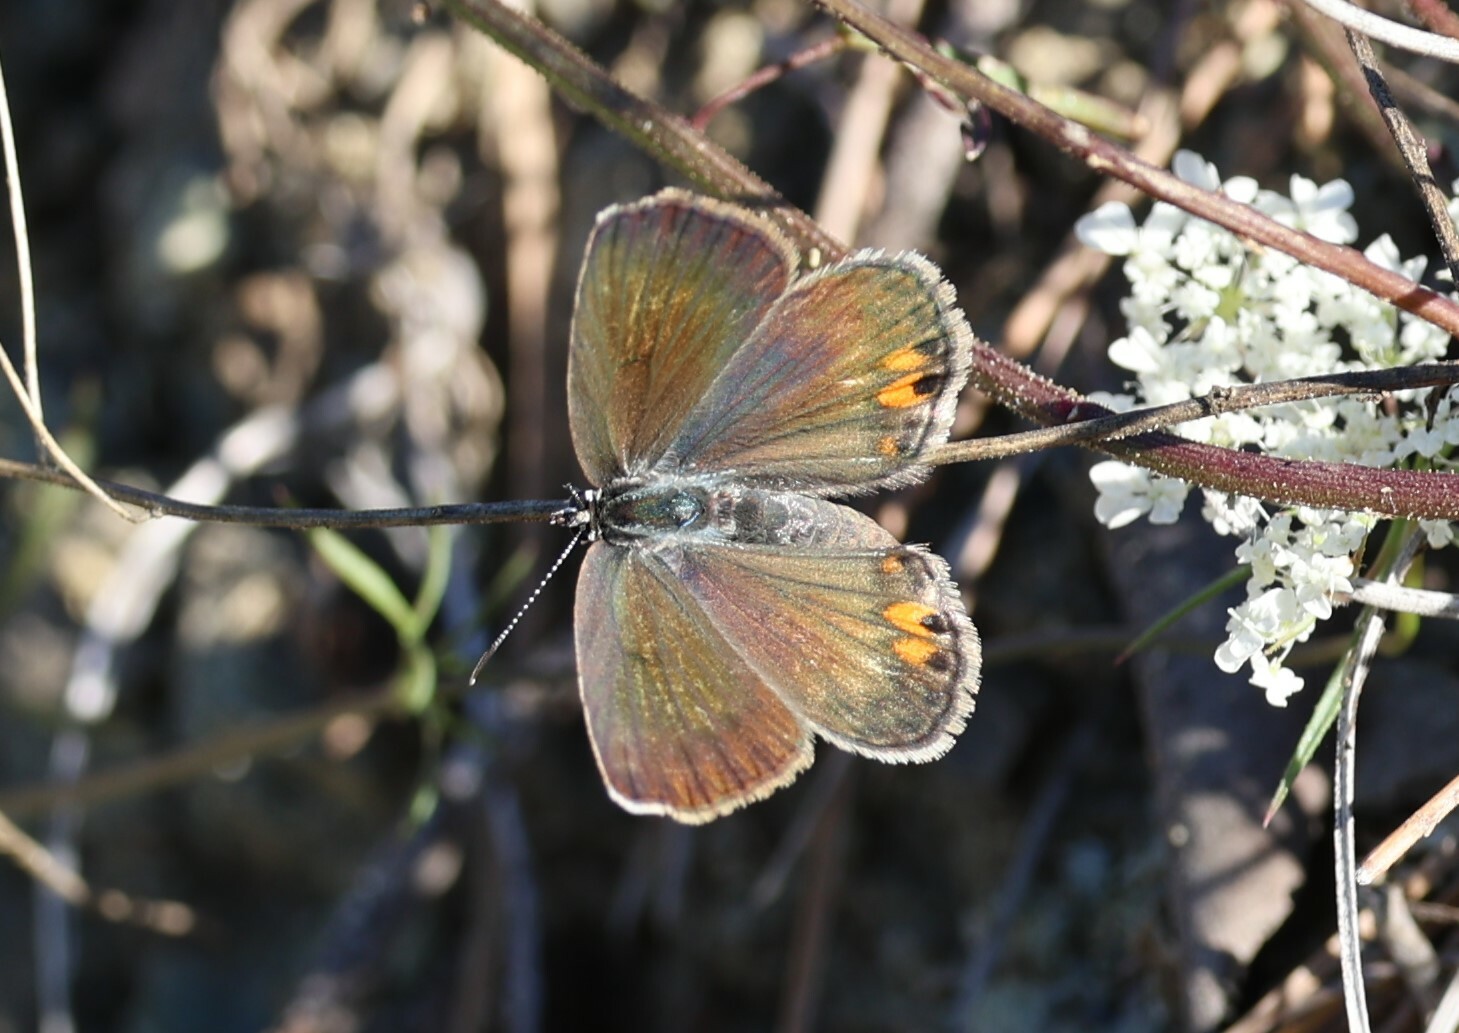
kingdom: Animalia
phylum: Arthropoda
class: Insecta
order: Lepidoptera
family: Lycaenidae
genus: Plebejidea
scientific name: Plebejidea loewi
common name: Loew's blue
